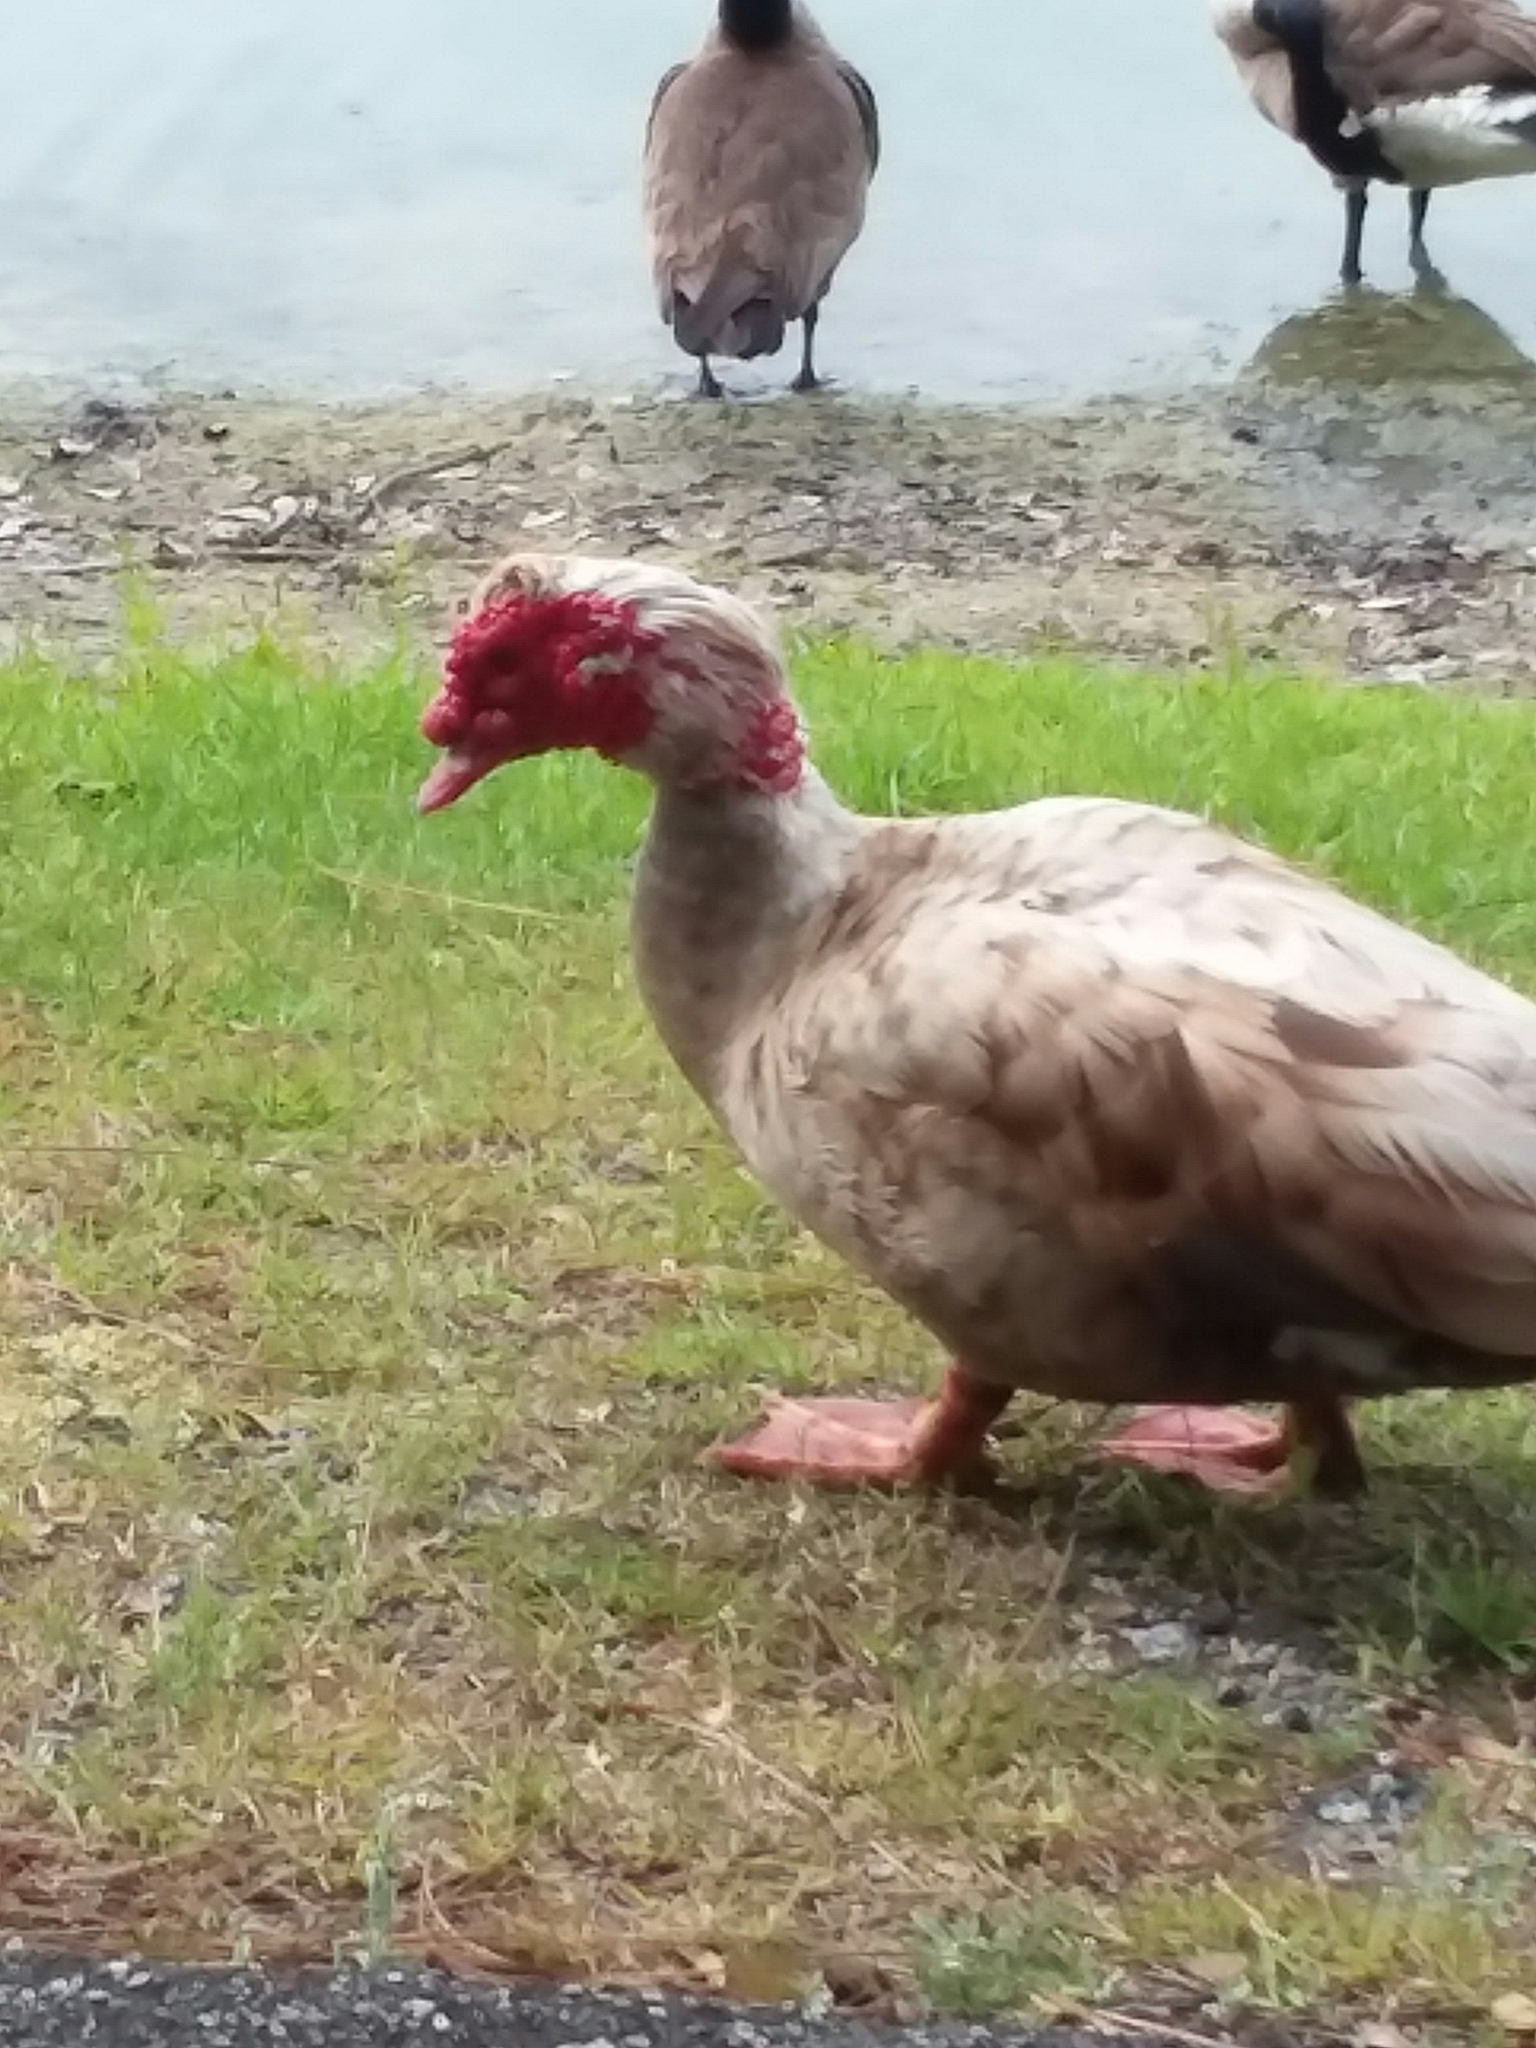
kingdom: Animalia
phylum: Chordata
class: Aves
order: Anseriformes
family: Anatidae
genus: Cairina
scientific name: Cairina moschata
